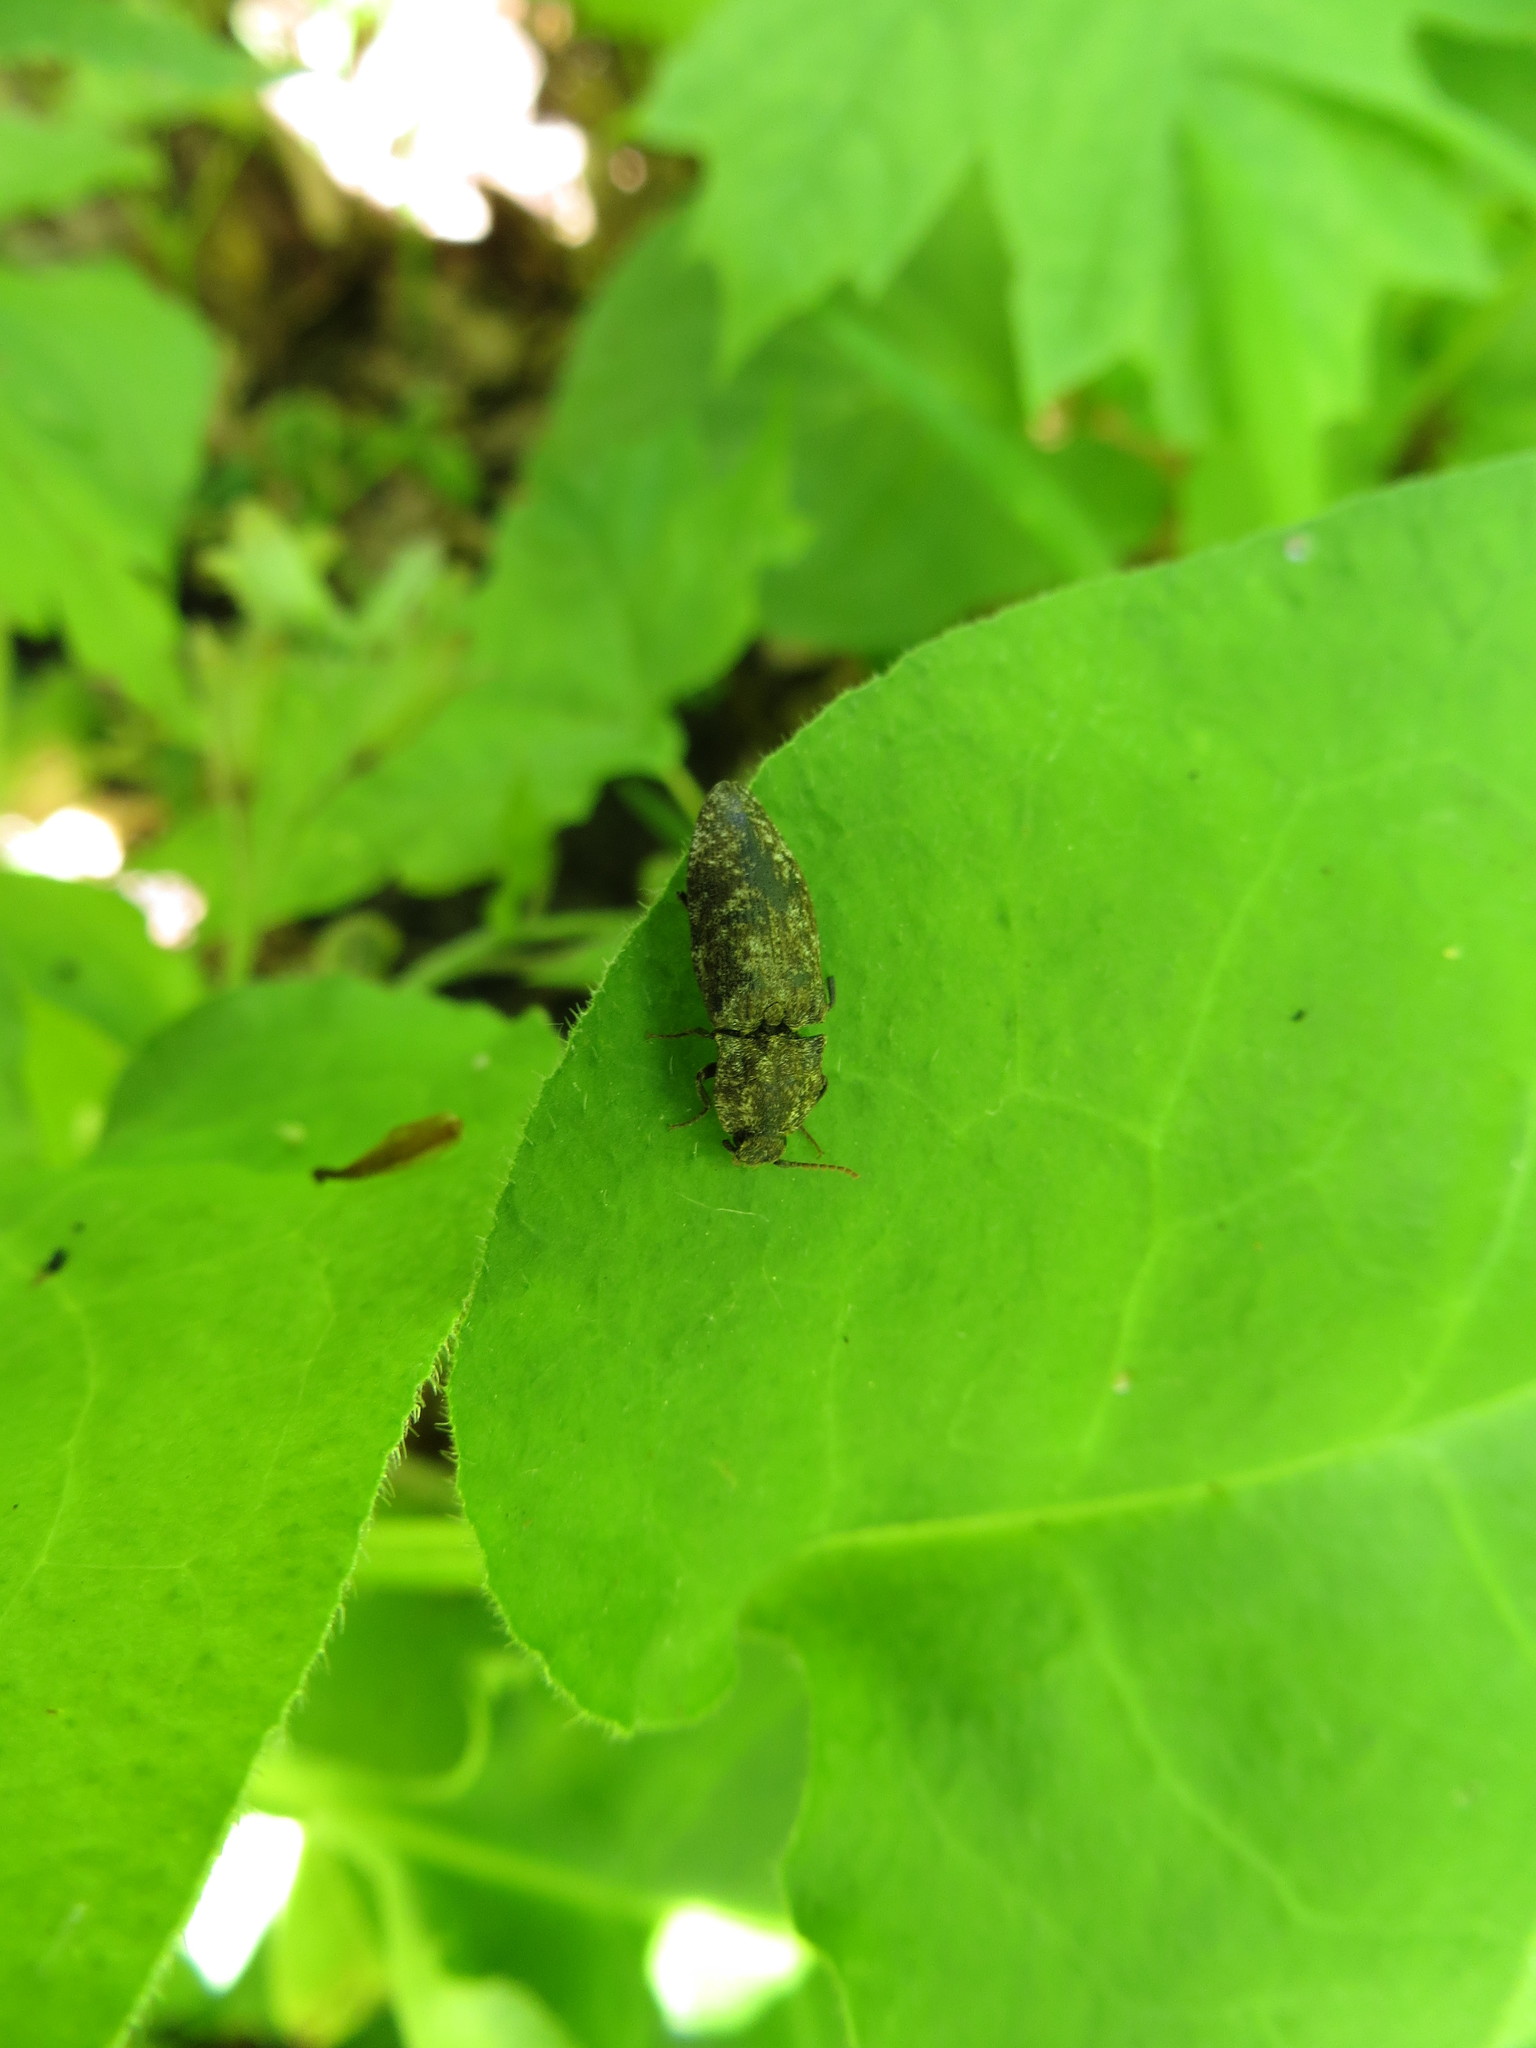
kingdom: Animalia
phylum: Arthropoda
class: Insecta
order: Coleoptera
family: Elateridae
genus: Agrypnus
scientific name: Agrypnus murinus
